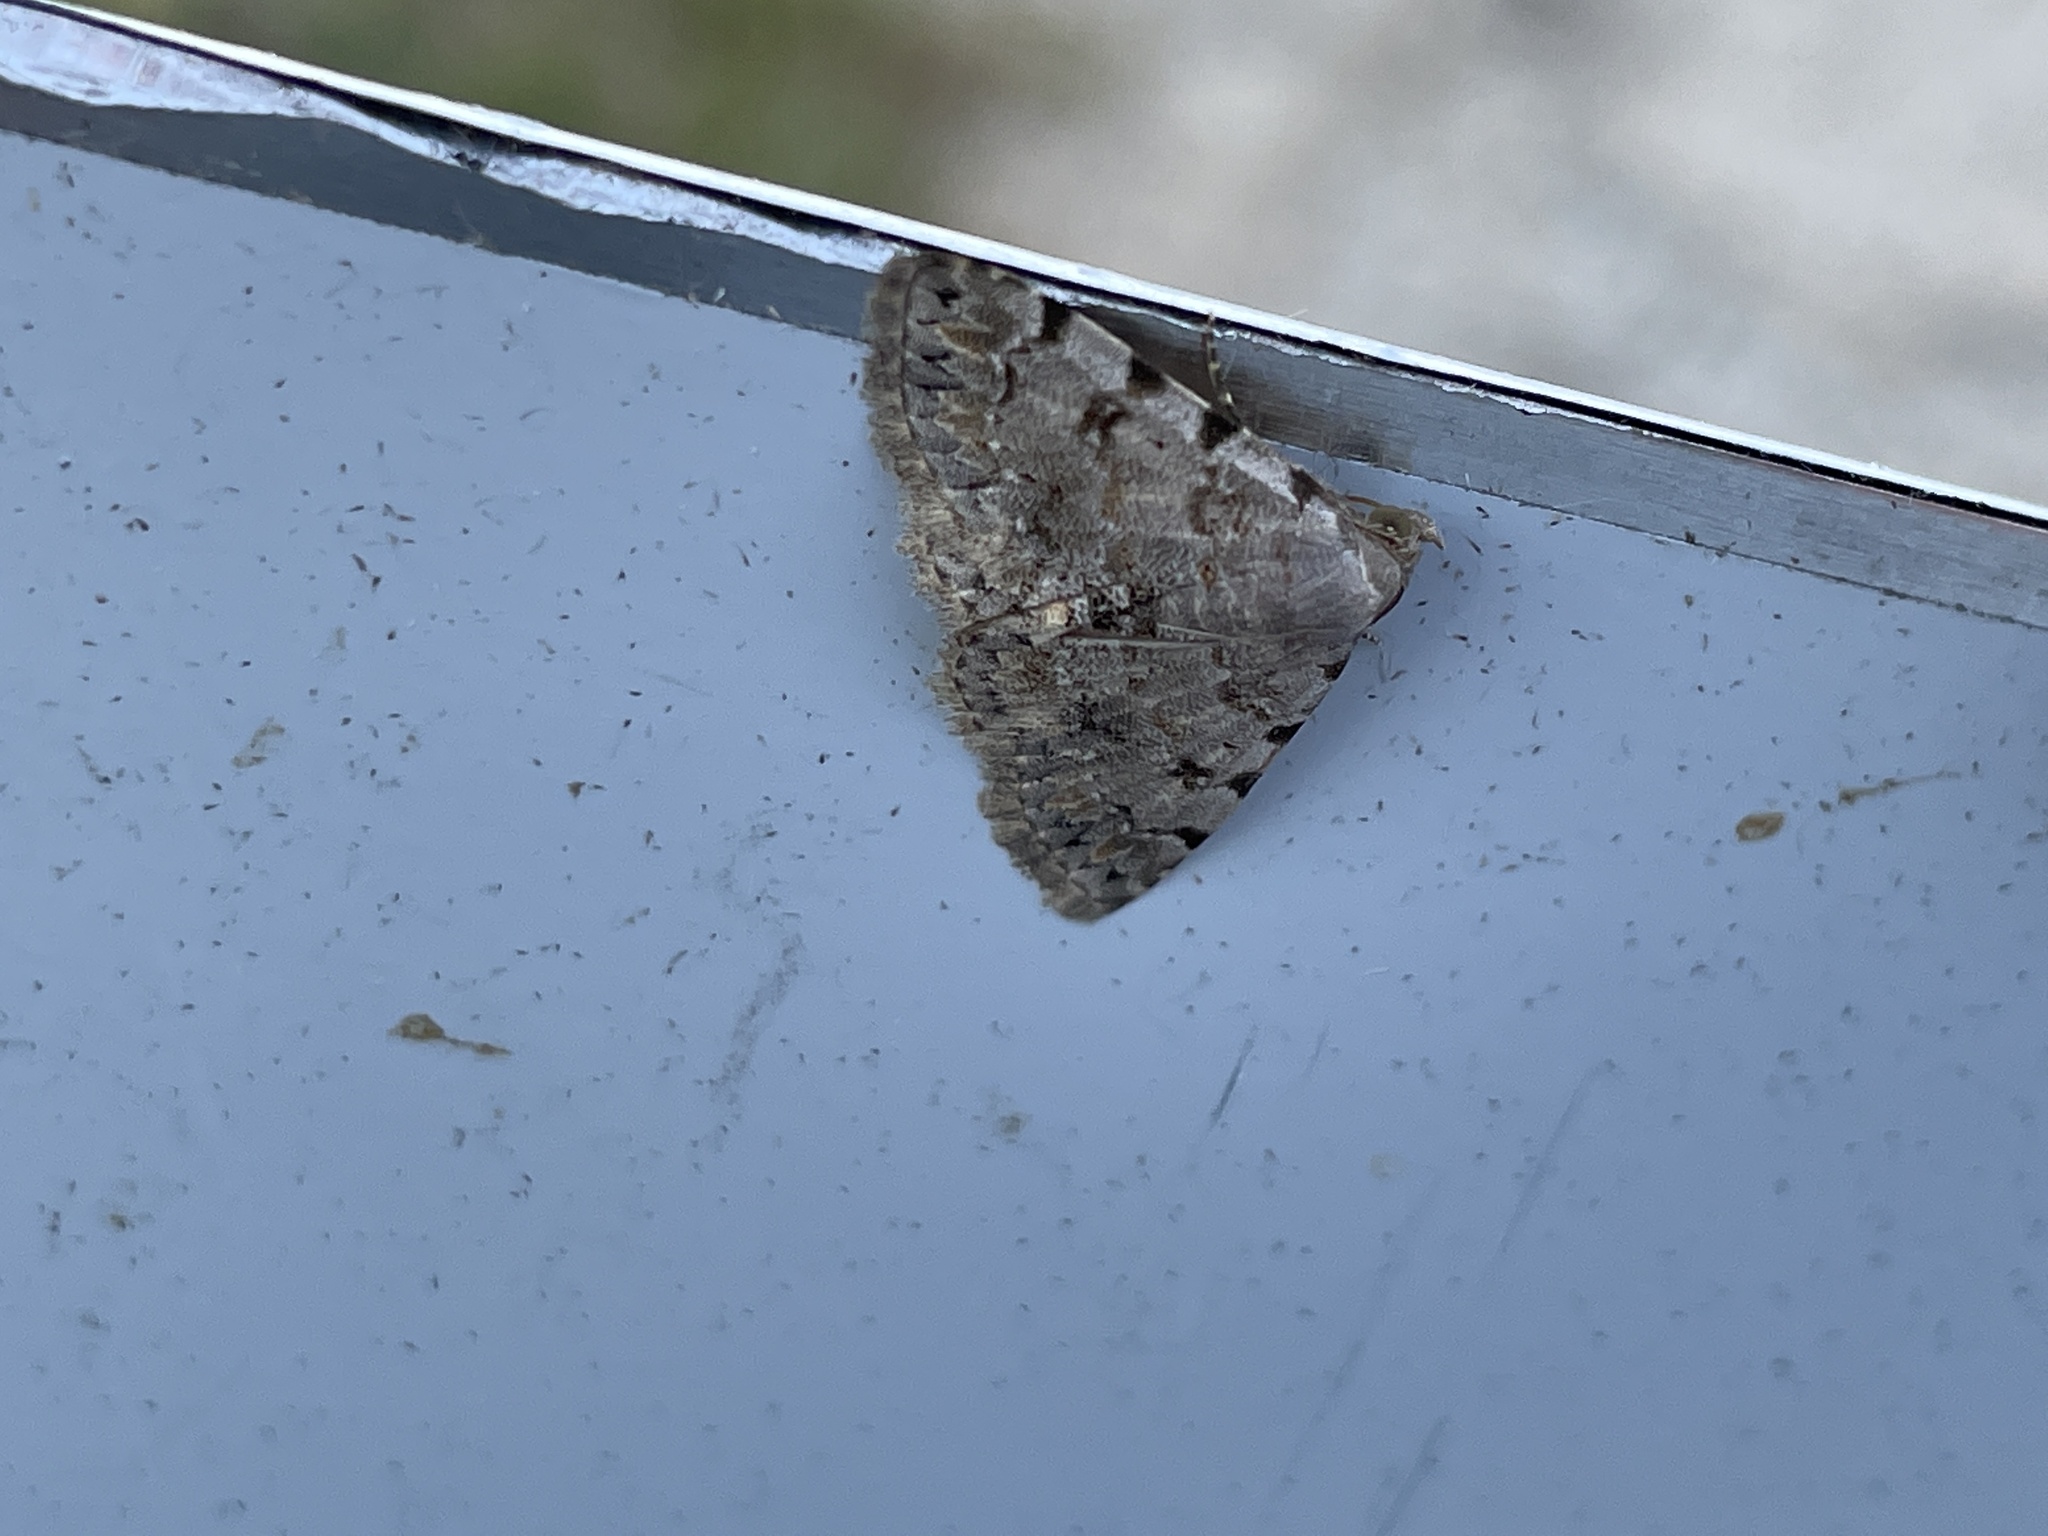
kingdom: Animalia
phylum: Arthropoda
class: Insecta
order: Lepidoptera
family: Noctuidae
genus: Metachrostis
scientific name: Metachrostis velox
